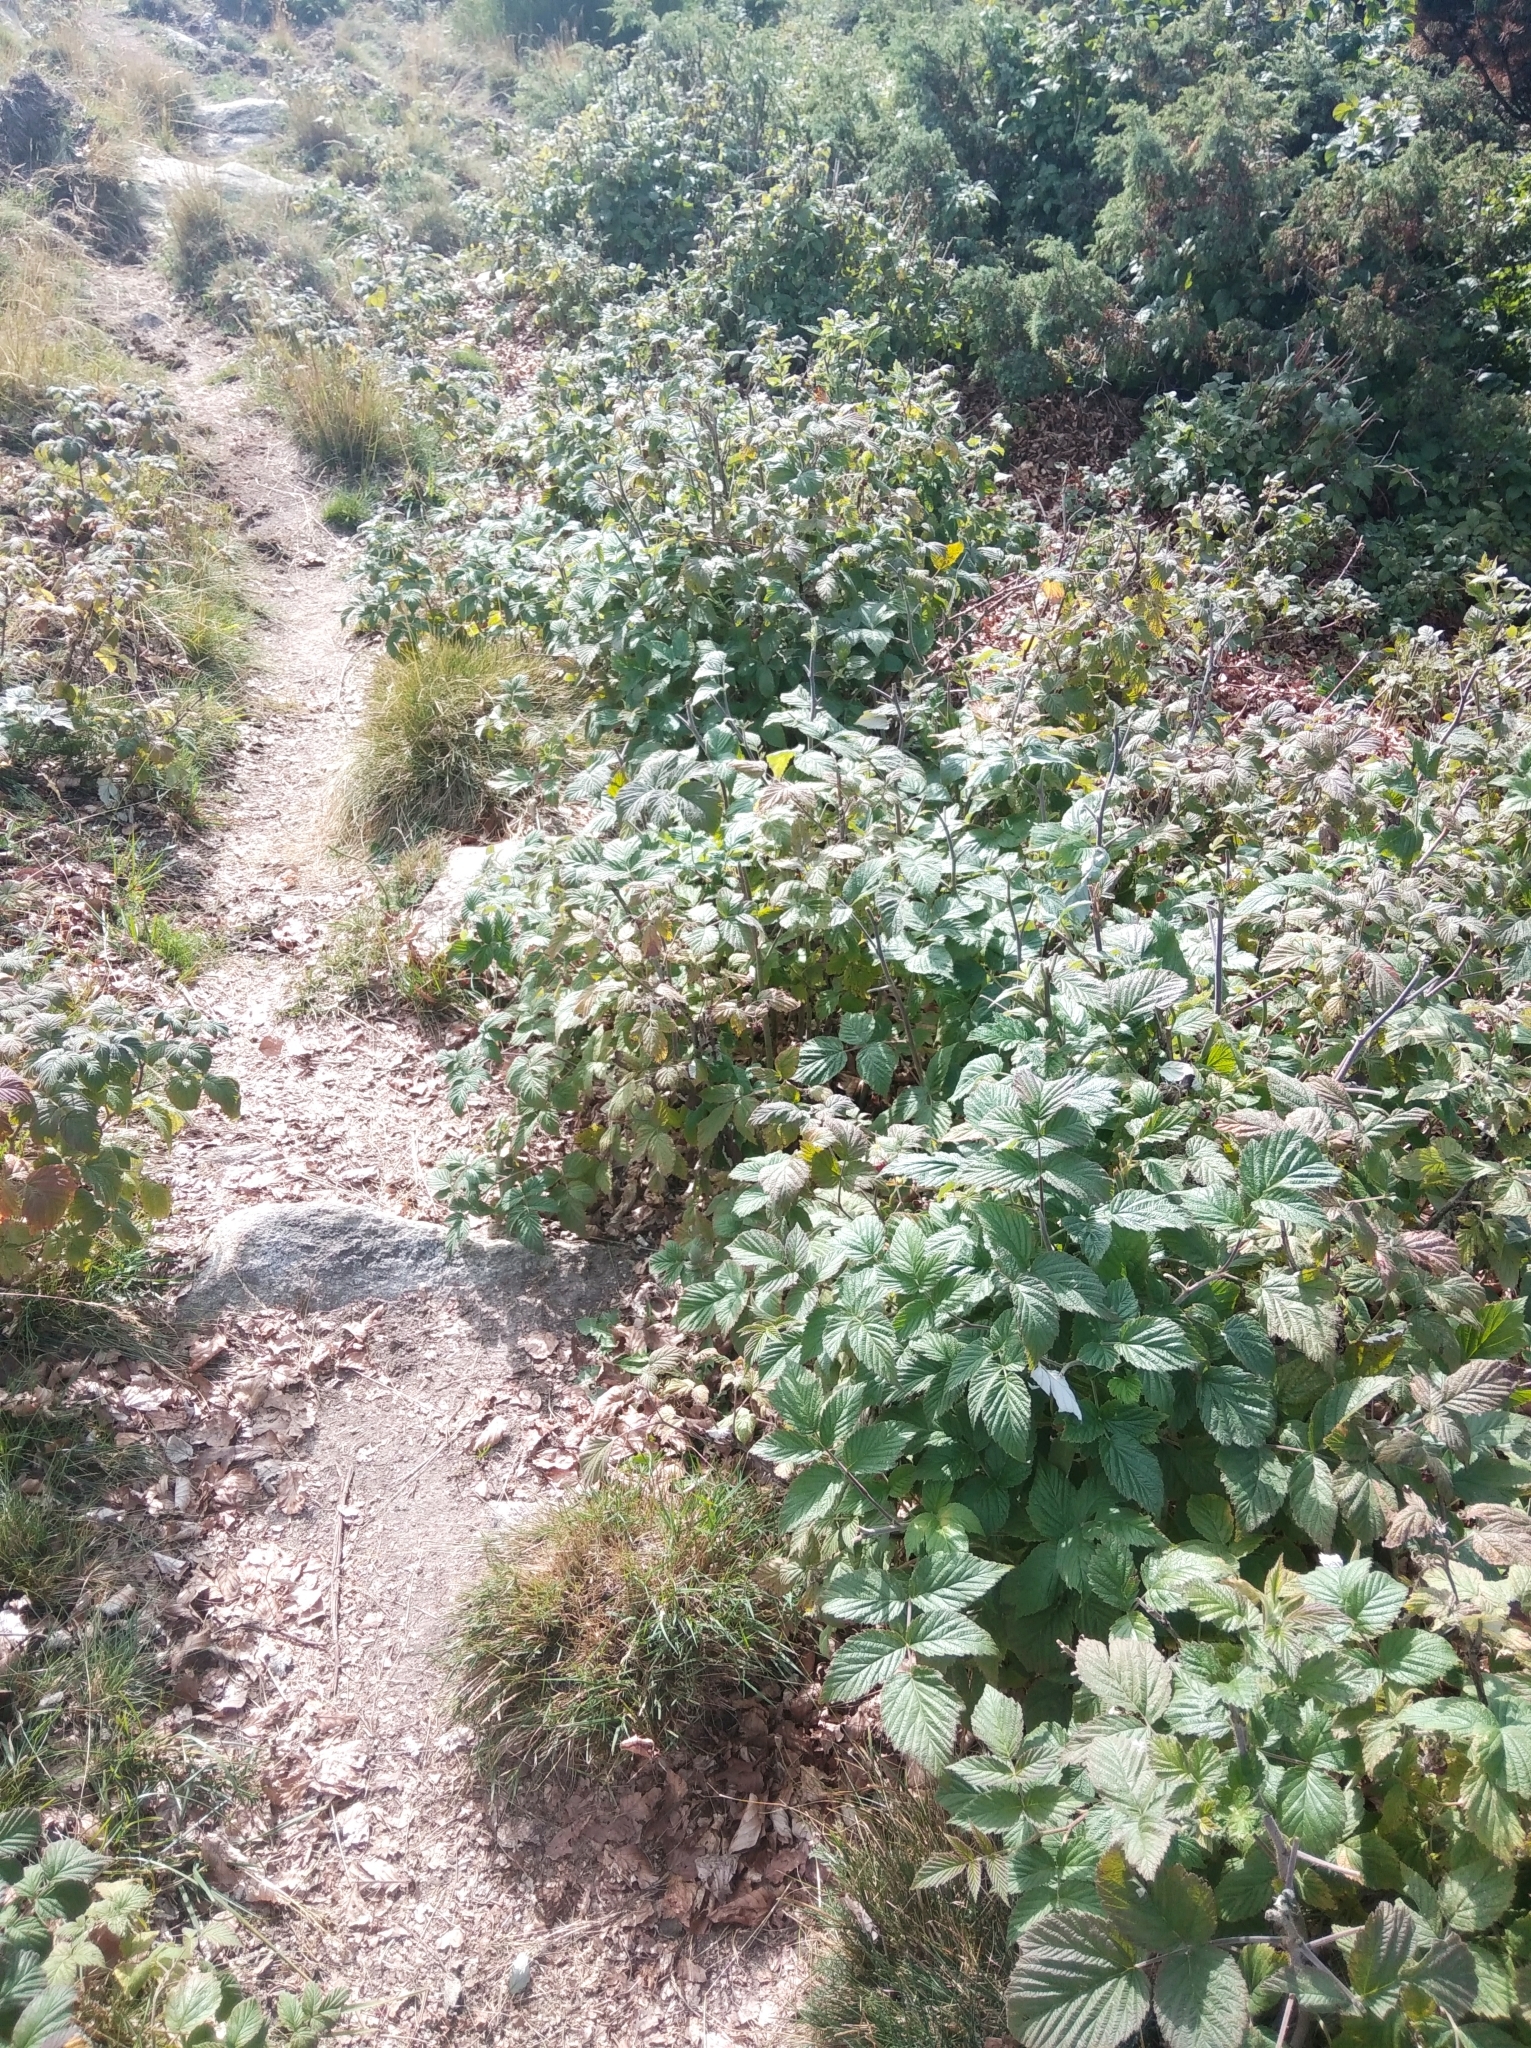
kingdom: Plantae
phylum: Tracheophyta
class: Magnoliopsida
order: Rosales
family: Rosaceae
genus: Rubus
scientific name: Rubus idaeus
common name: Raspberry
